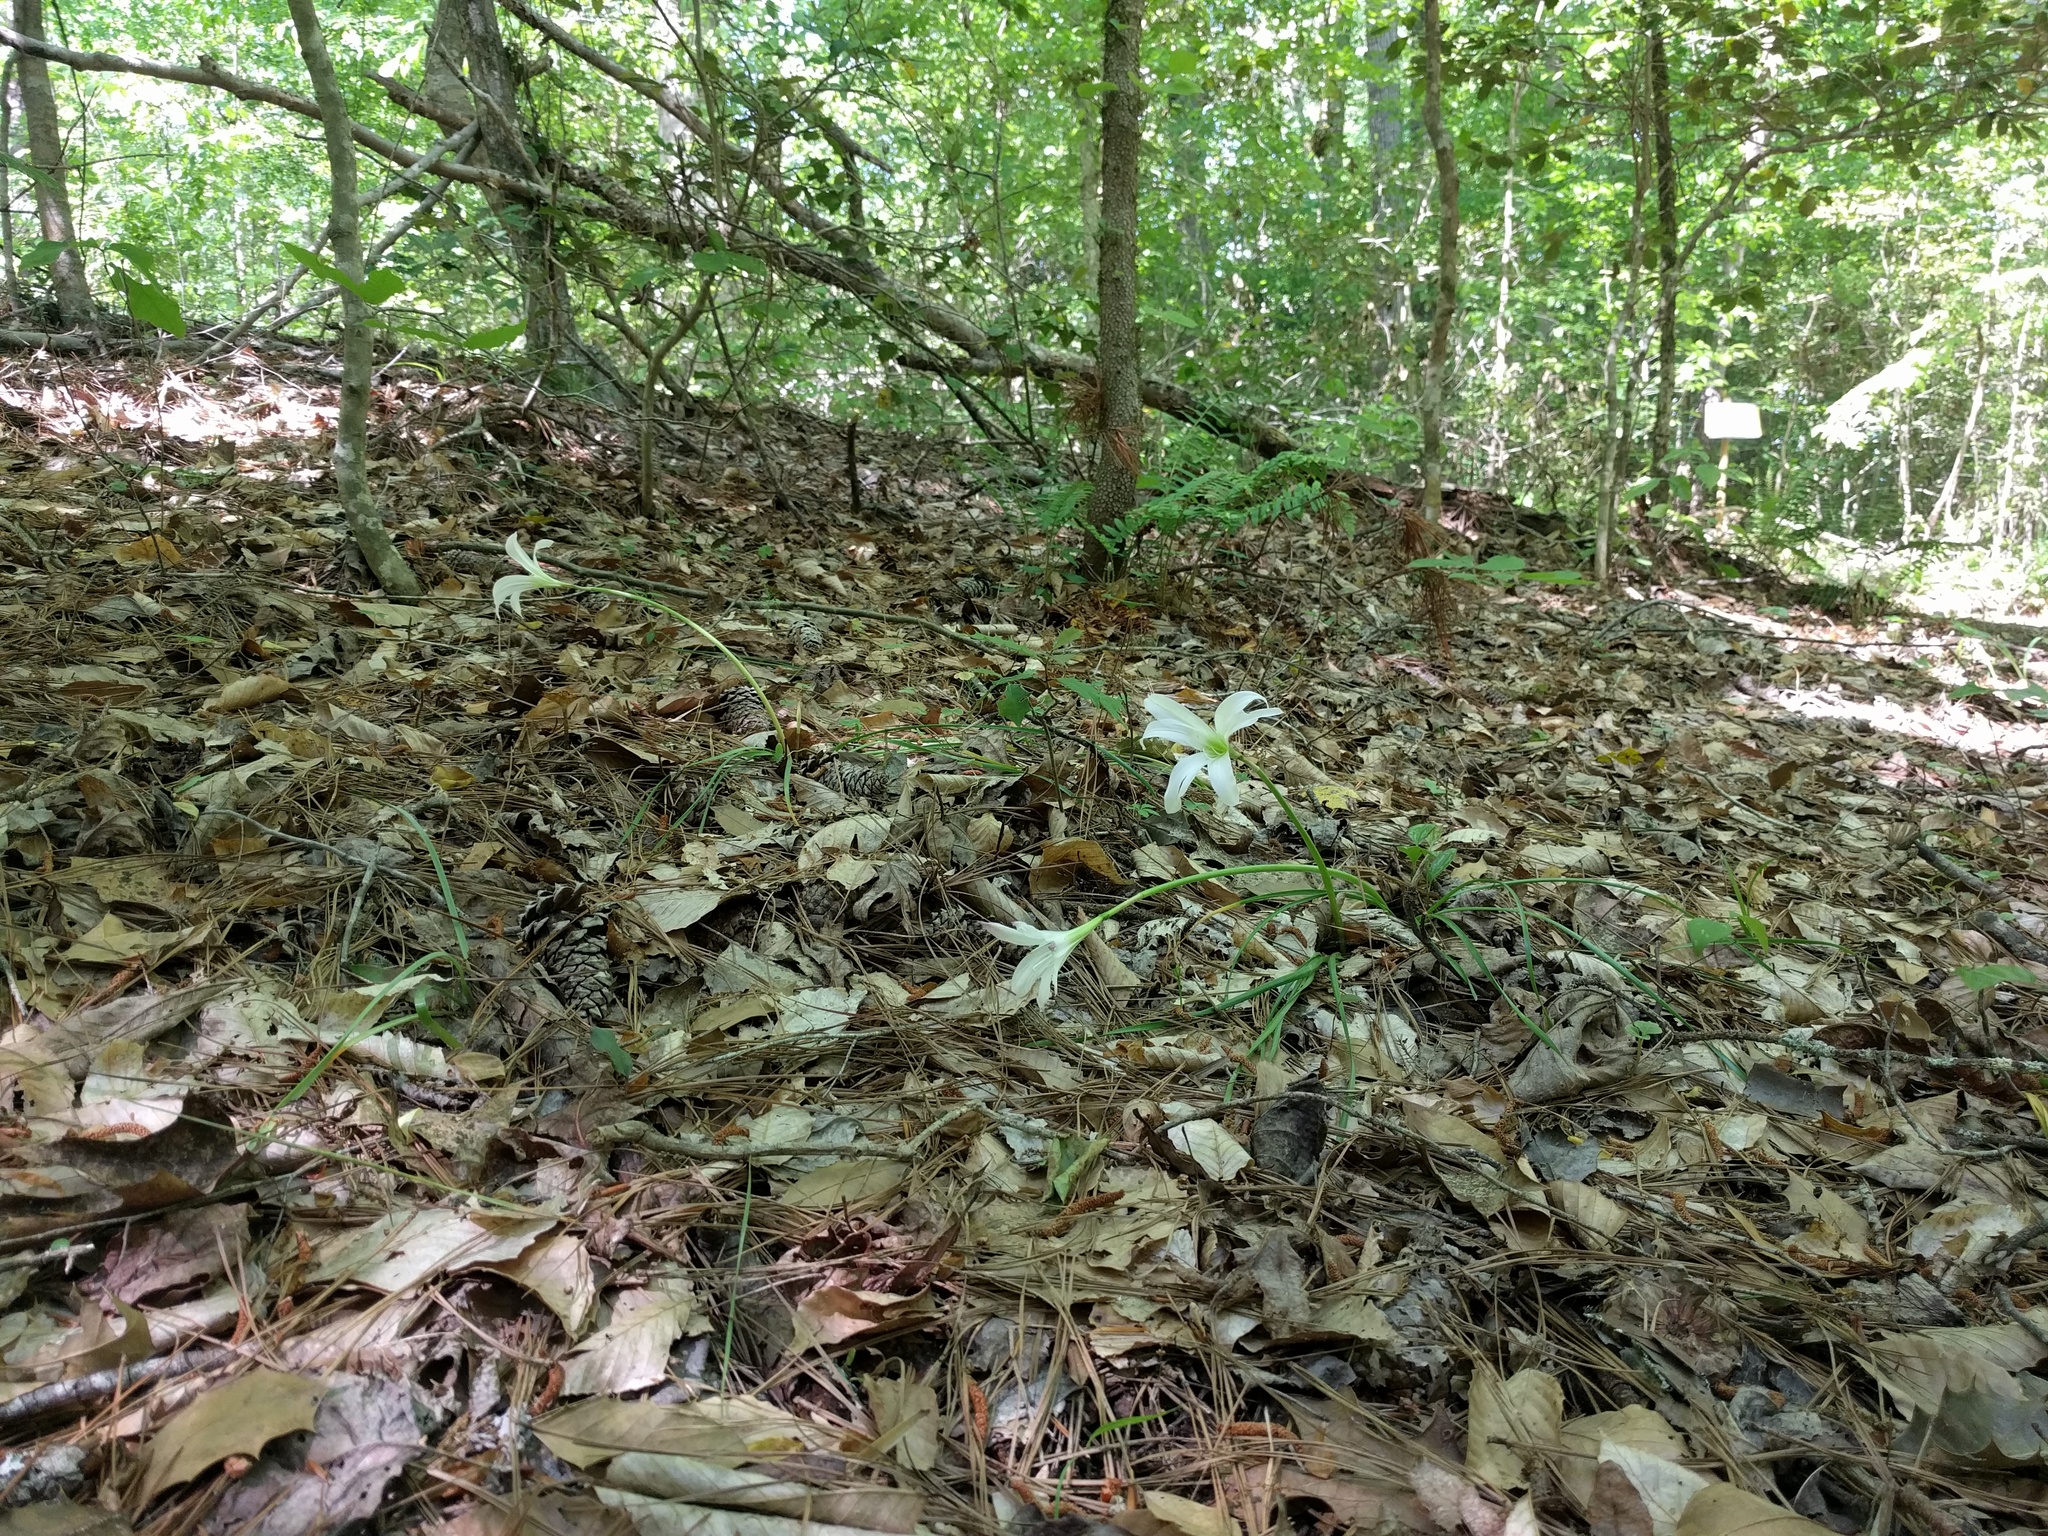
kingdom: Plantae
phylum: Tracheophyta
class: Liliopsida
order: Asparagales
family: Amaryllidaceae
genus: Zephyranthes
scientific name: Zephyranthes atamasco
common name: Atamasco lily
